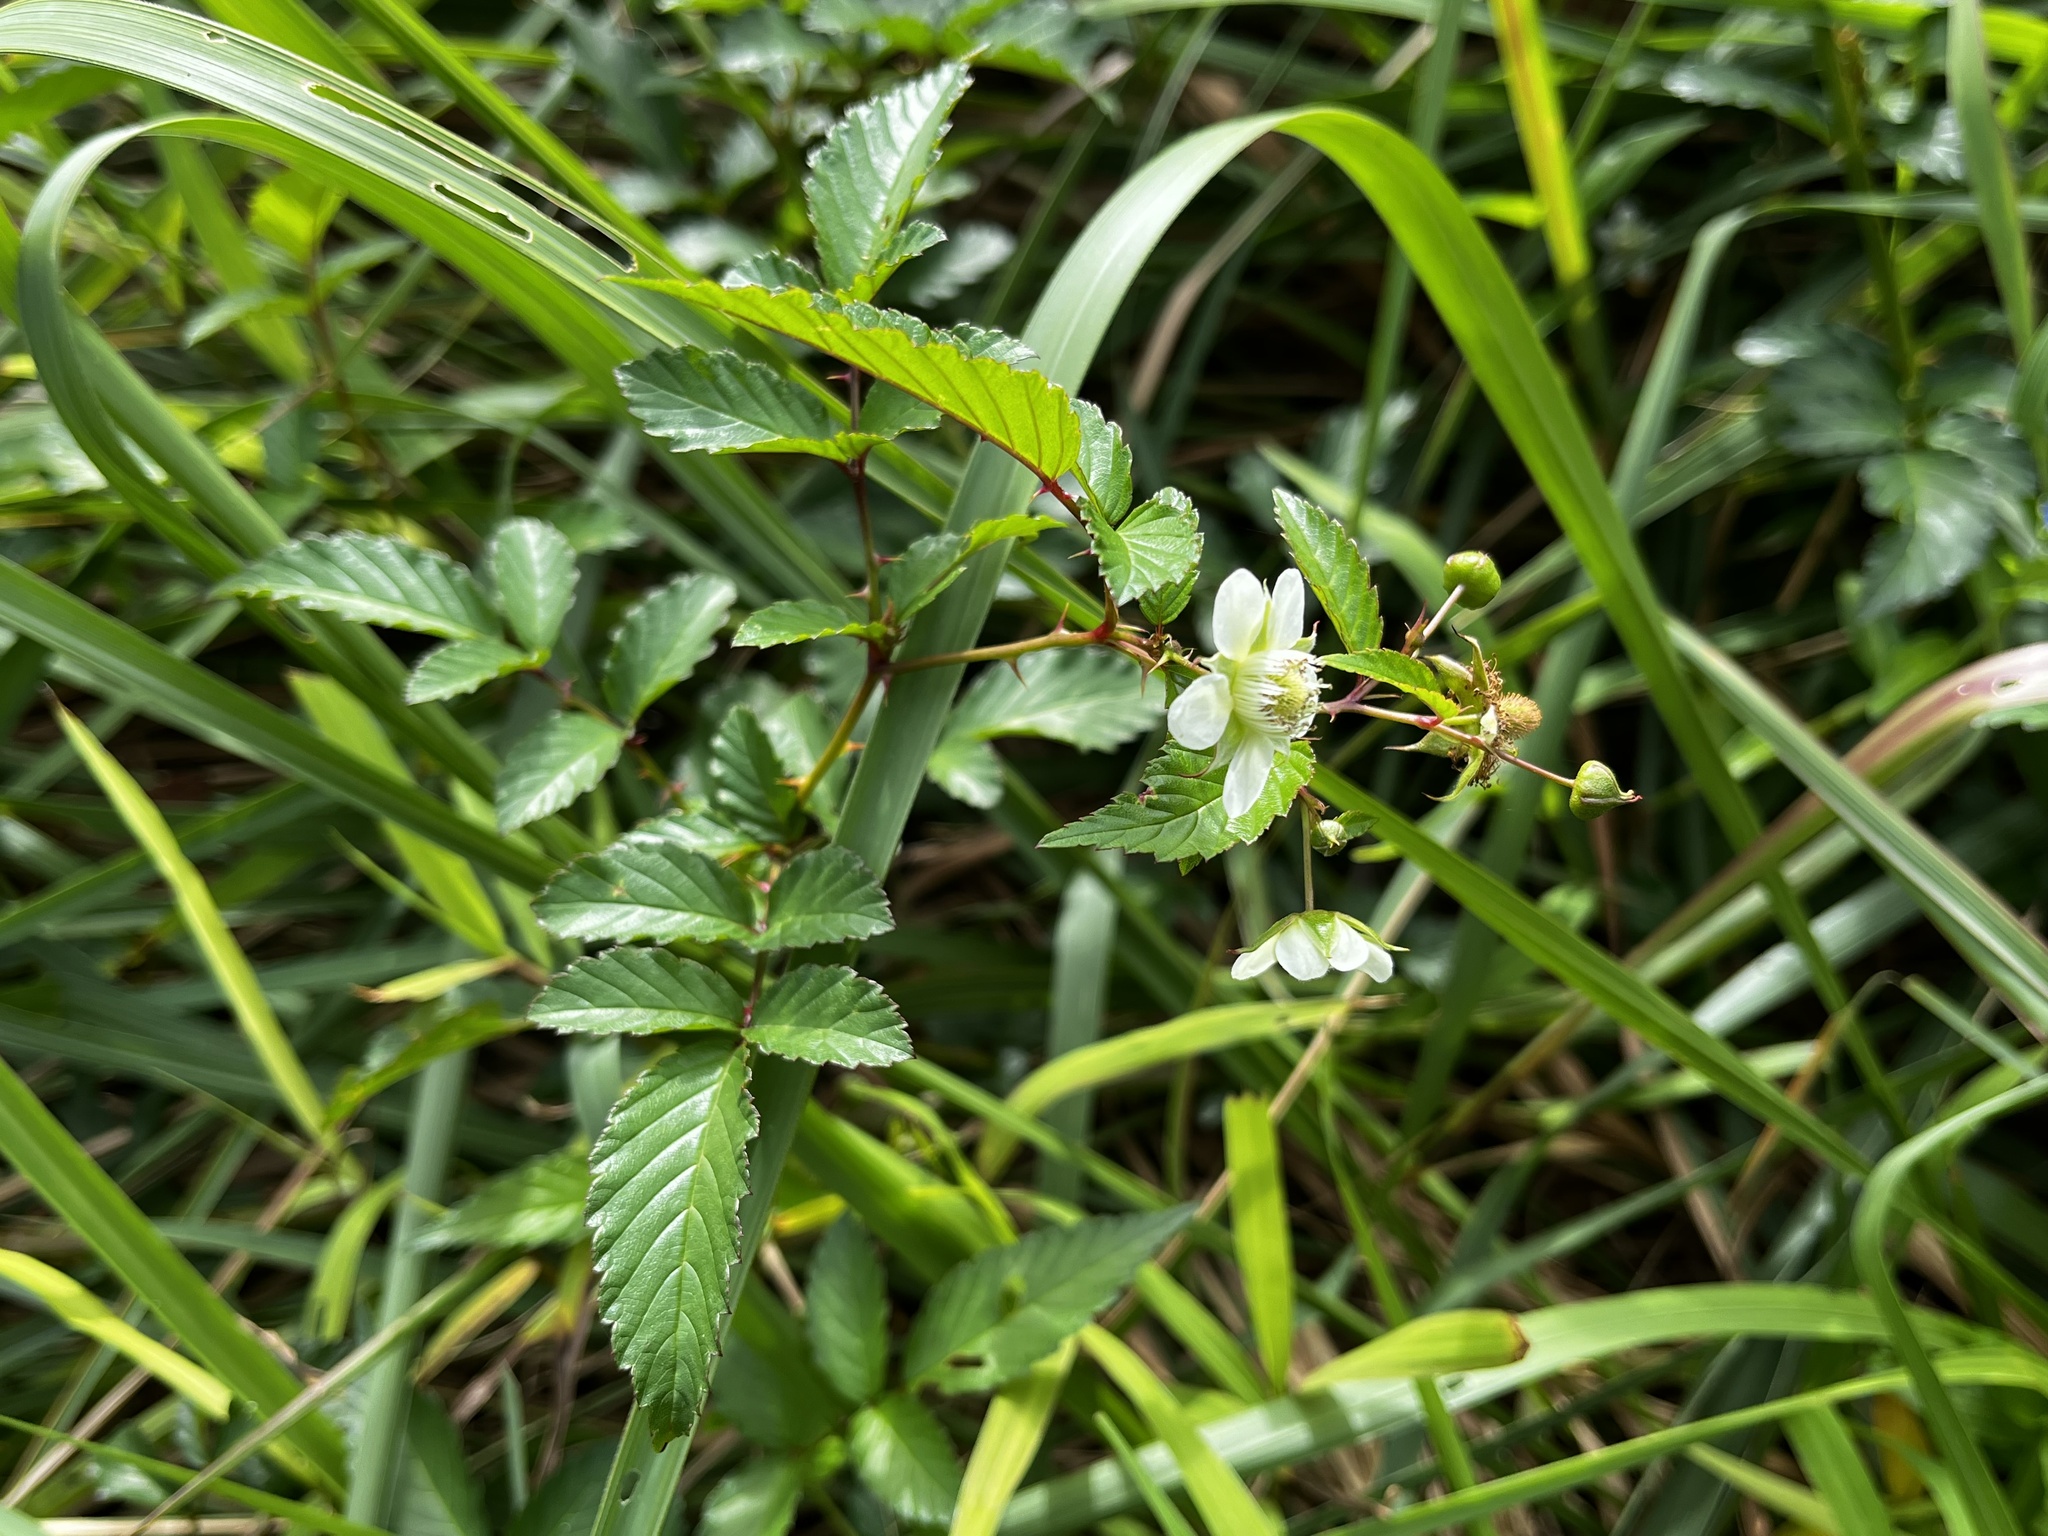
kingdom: Plantae
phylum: Tracheophyta
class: Magnoliopsida
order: Rosales
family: Rosaceae
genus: Rubus
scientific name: Rubus fraxinifolius
